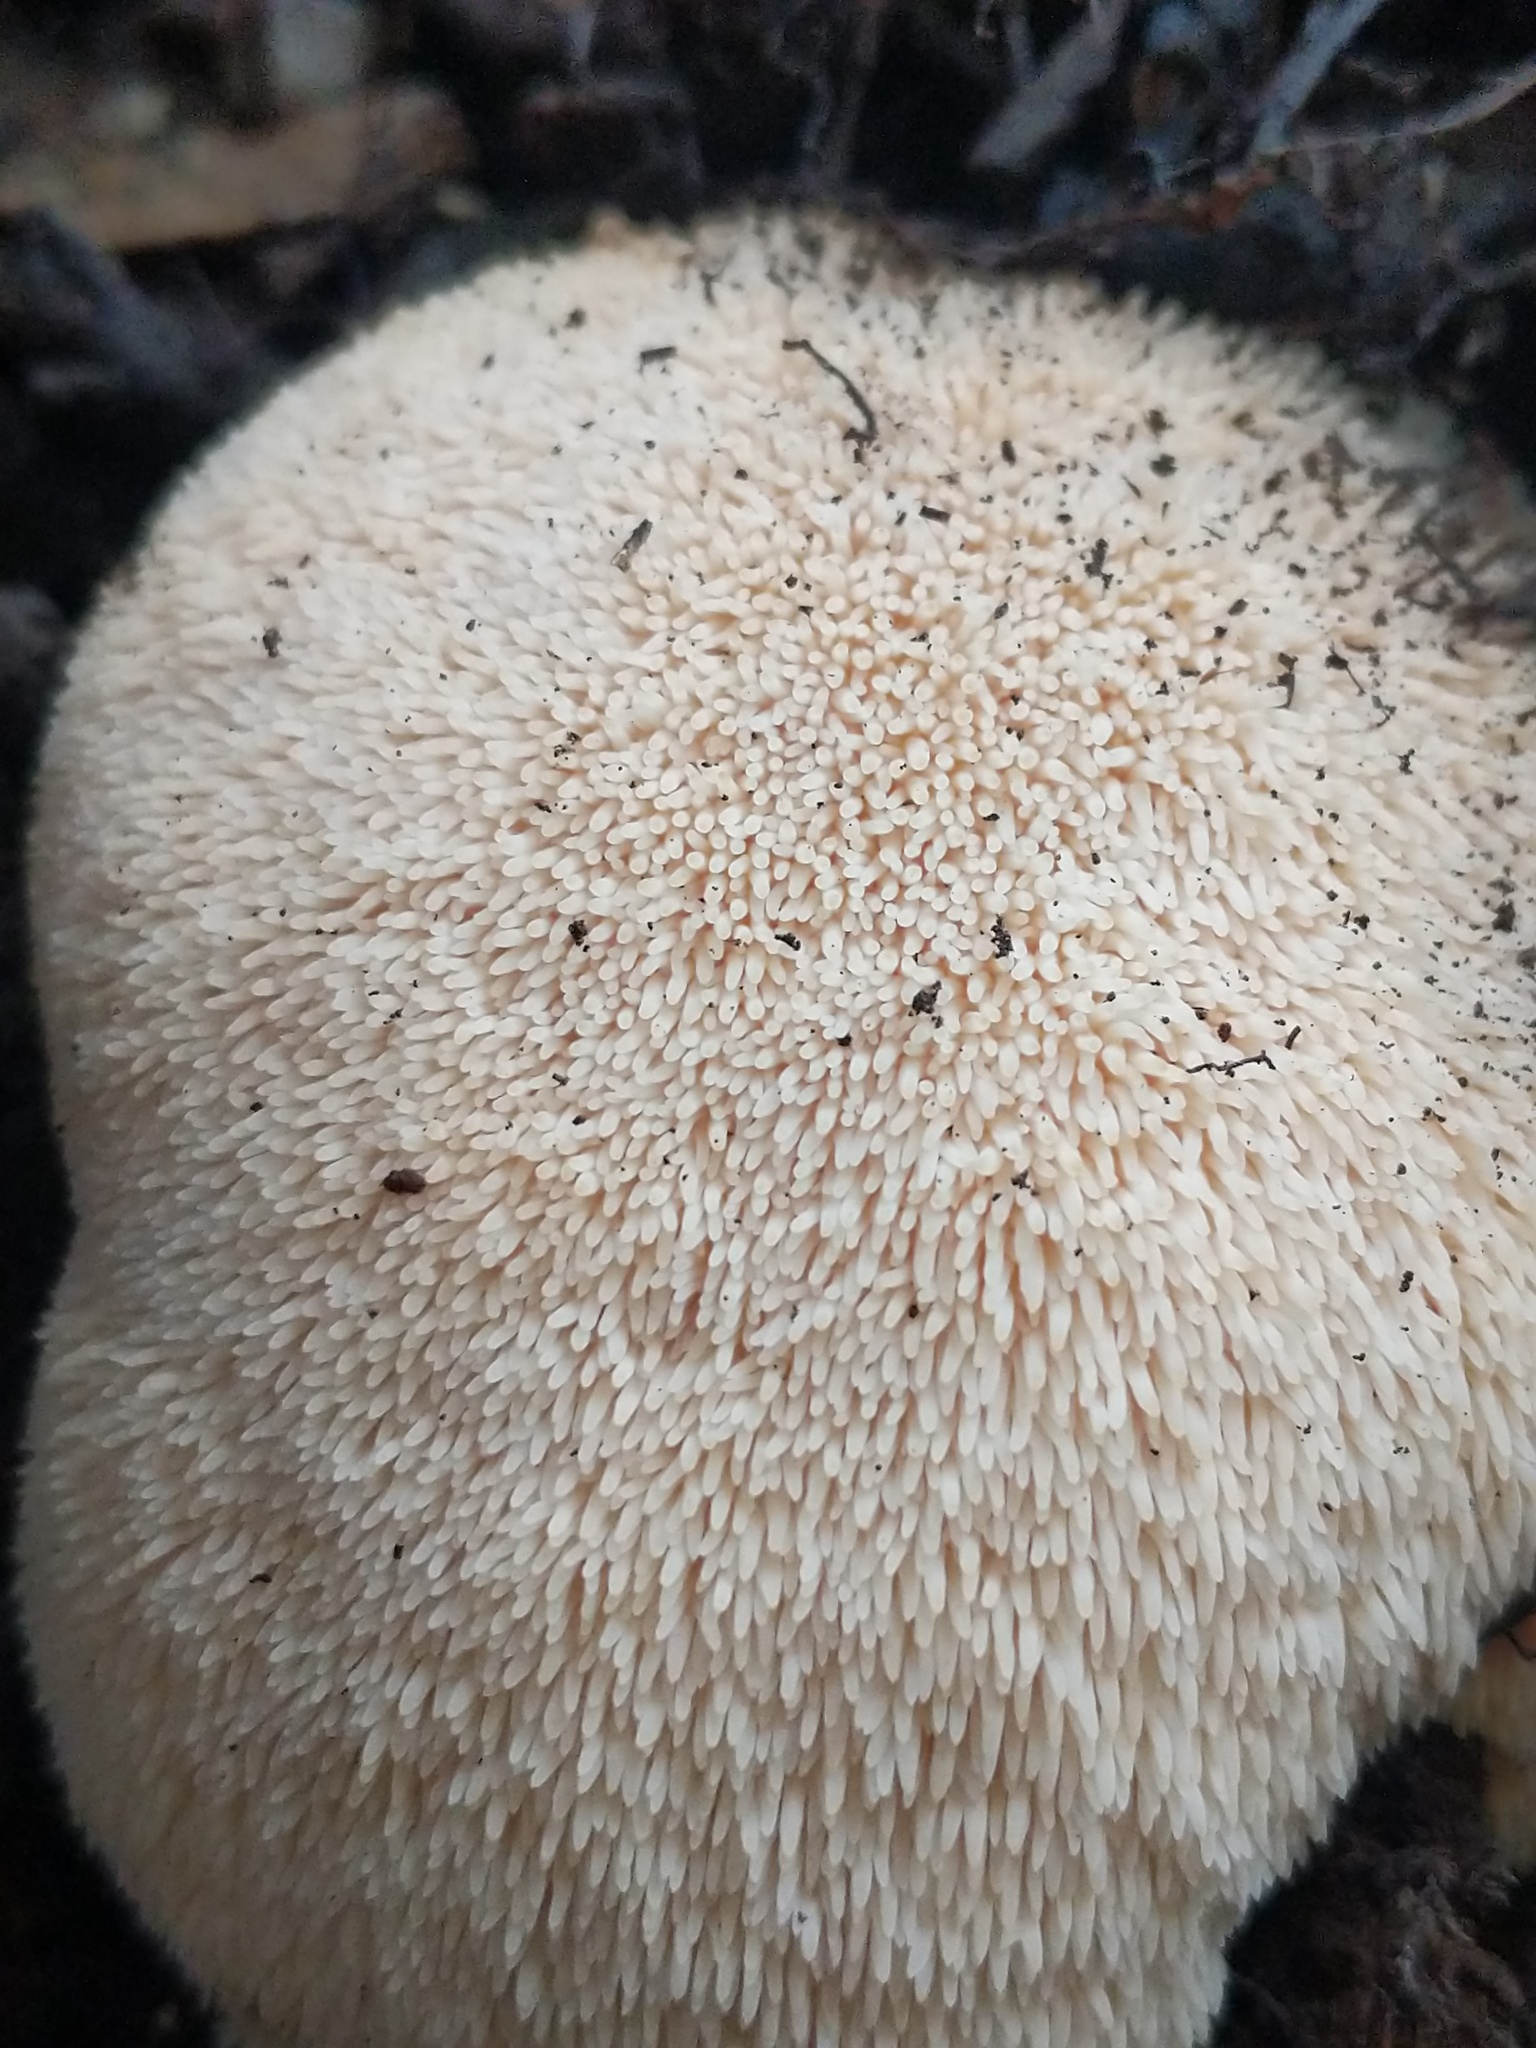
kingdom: Fungi
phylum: Basidiomycota
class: Agaricomycetes
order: Russulales
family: Hericiaceae
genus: Hericium
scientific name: Hericium erinaceus
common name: Bearded tooth
